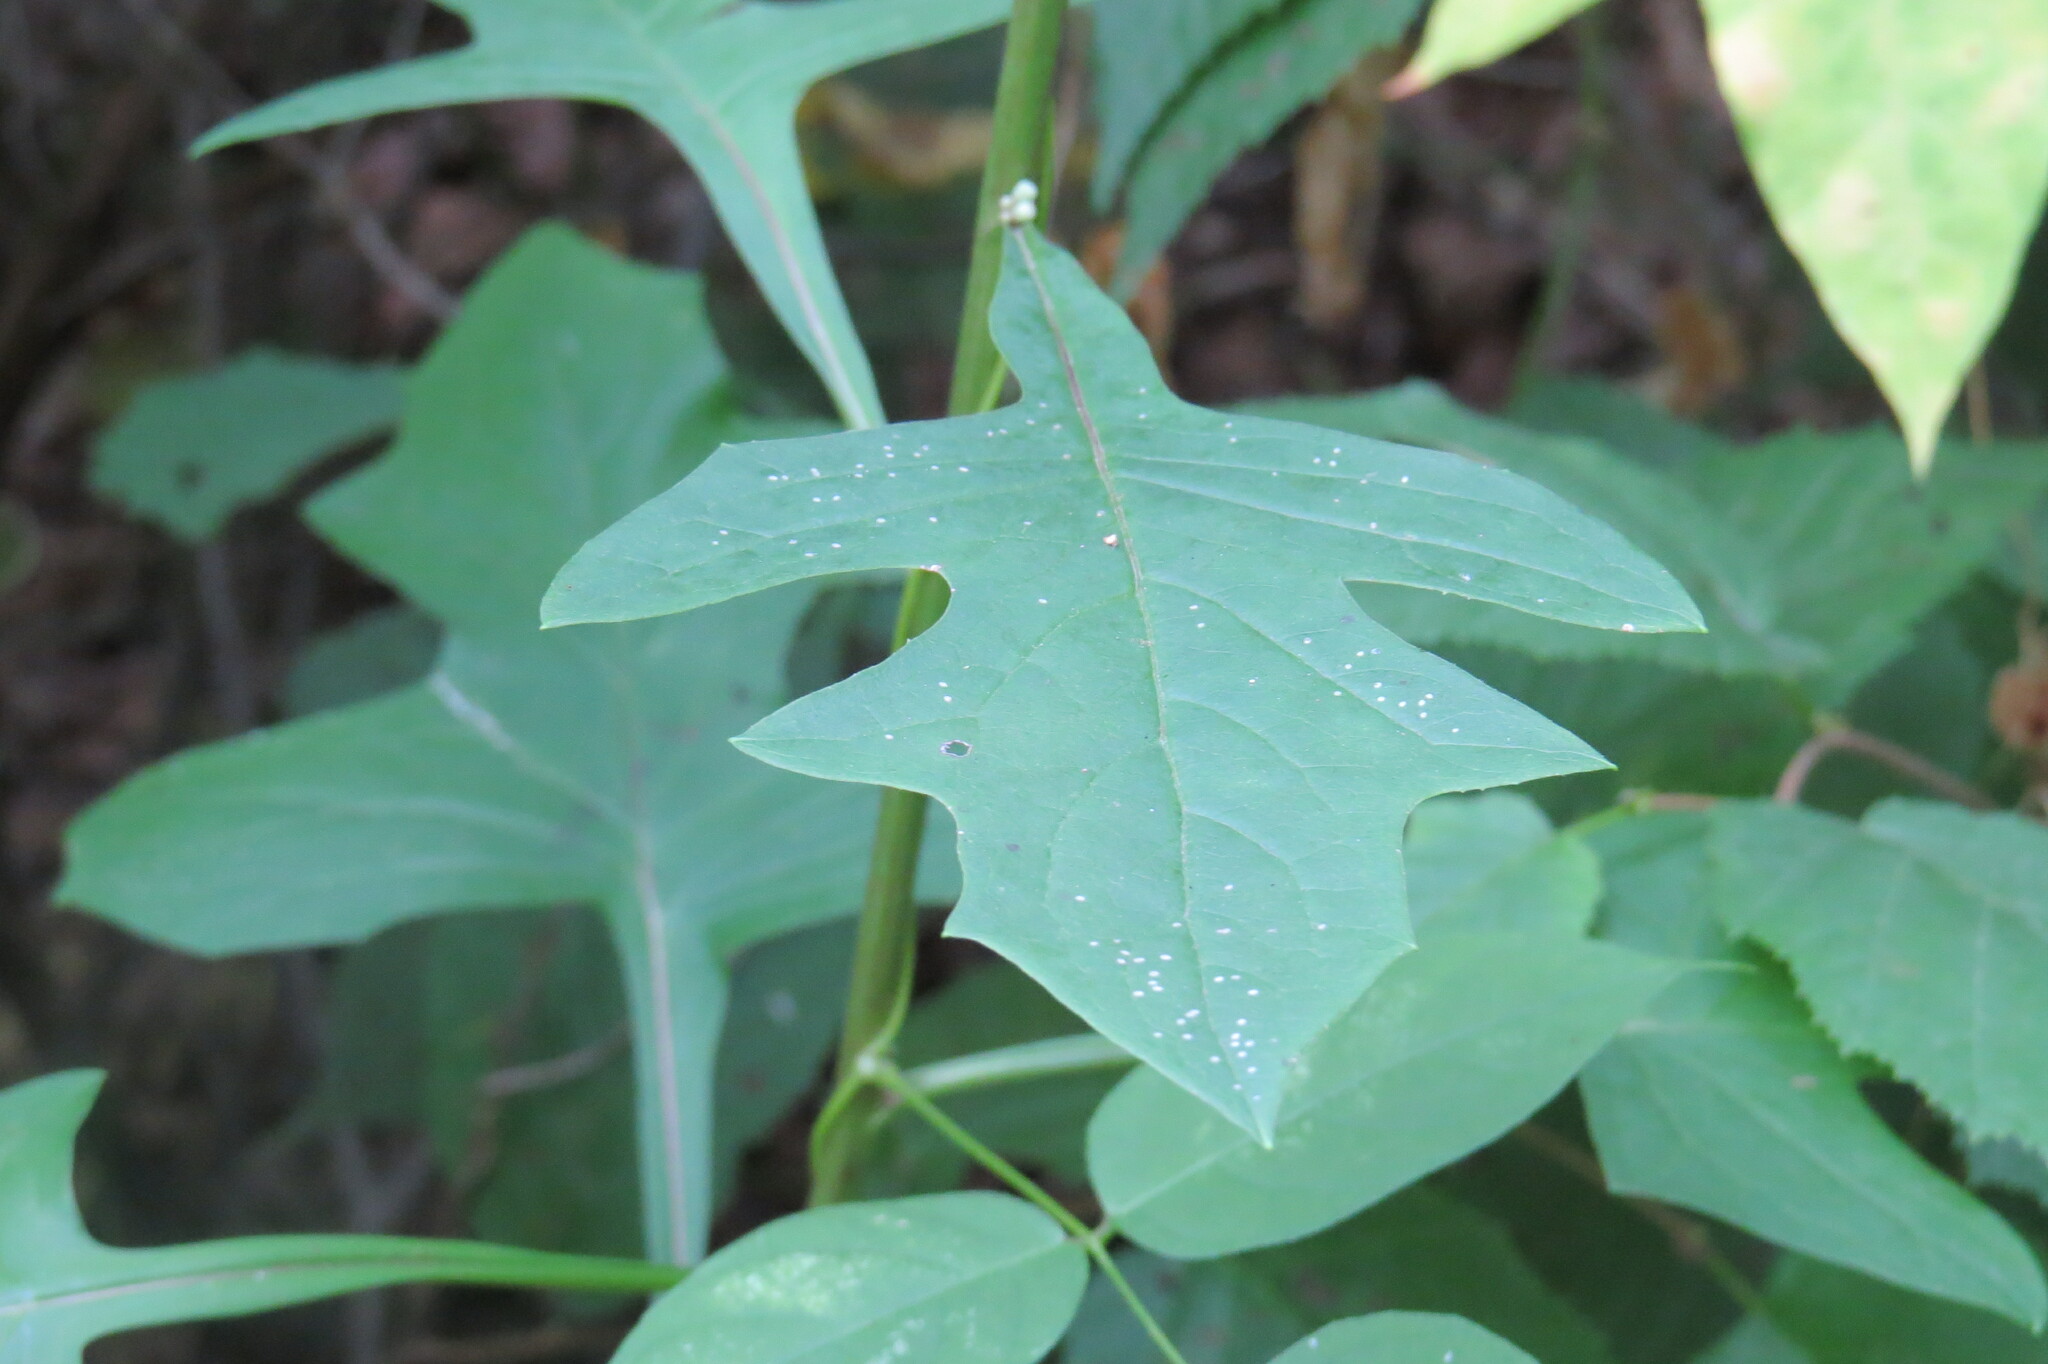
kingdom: Plantae
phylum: Tracheophyta
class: Magnoliopsida
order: Asterales
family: Asteraceae
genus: Nabalus
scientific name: Nabalus albus
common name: White rattlesnakeroot
